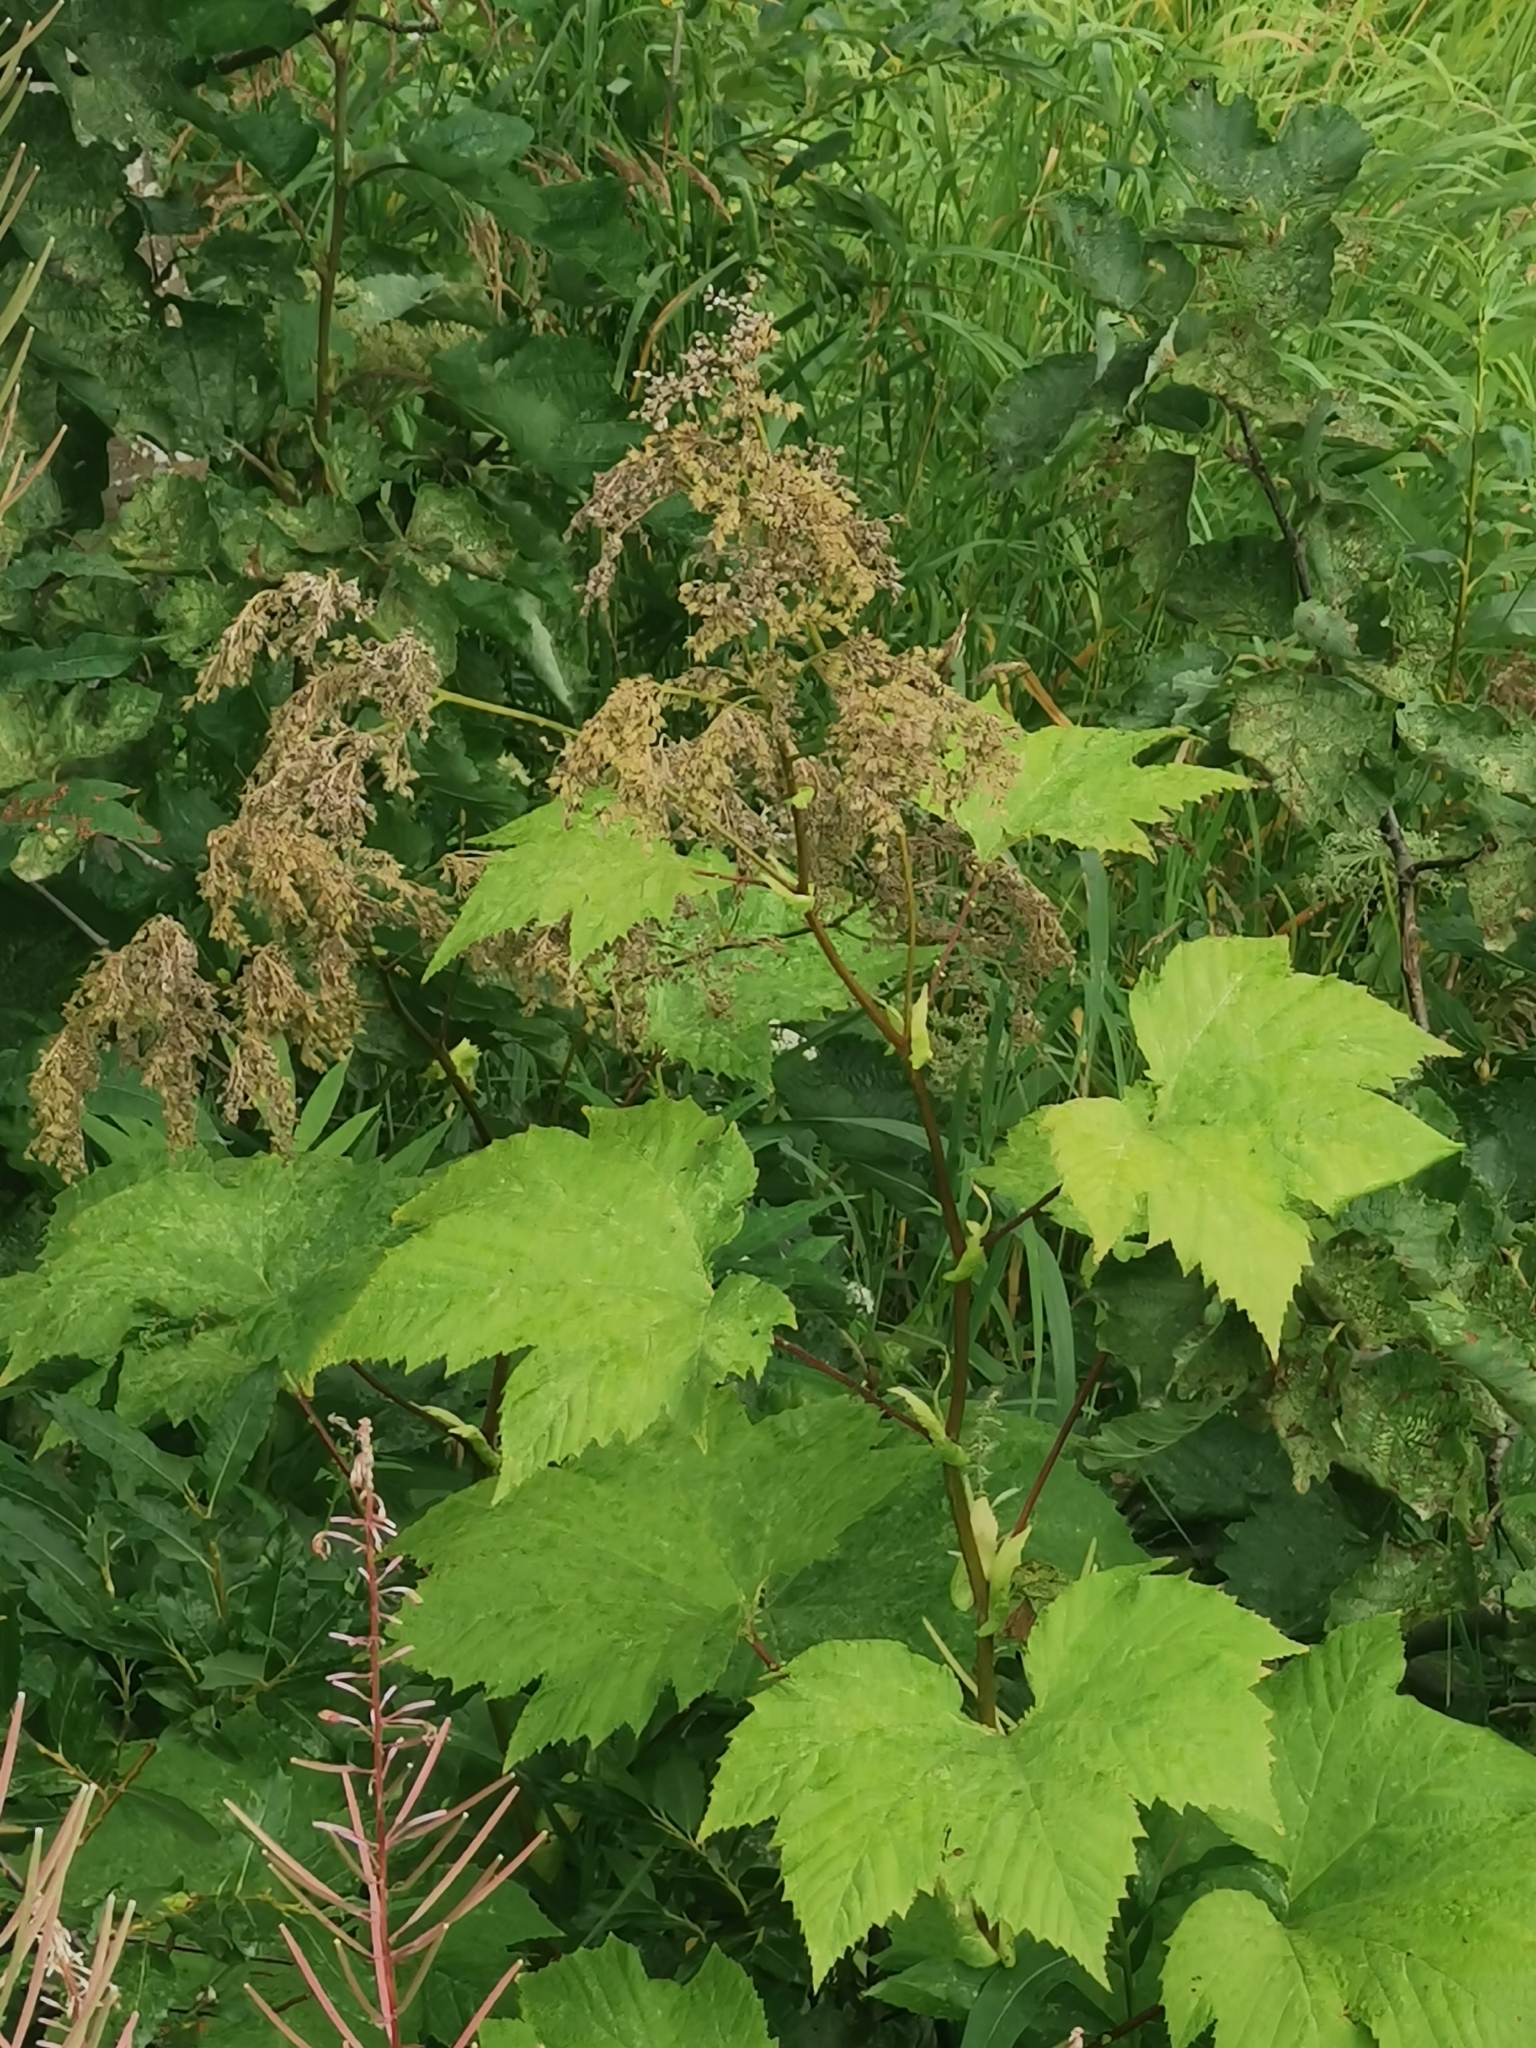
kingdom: Plantae
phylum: Tracheophyta
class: Magnoliopsida
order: Rosales
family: Rosaceae
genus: Filipendula
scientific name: Filipendula camtschatica
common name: Giant meadowsweet
